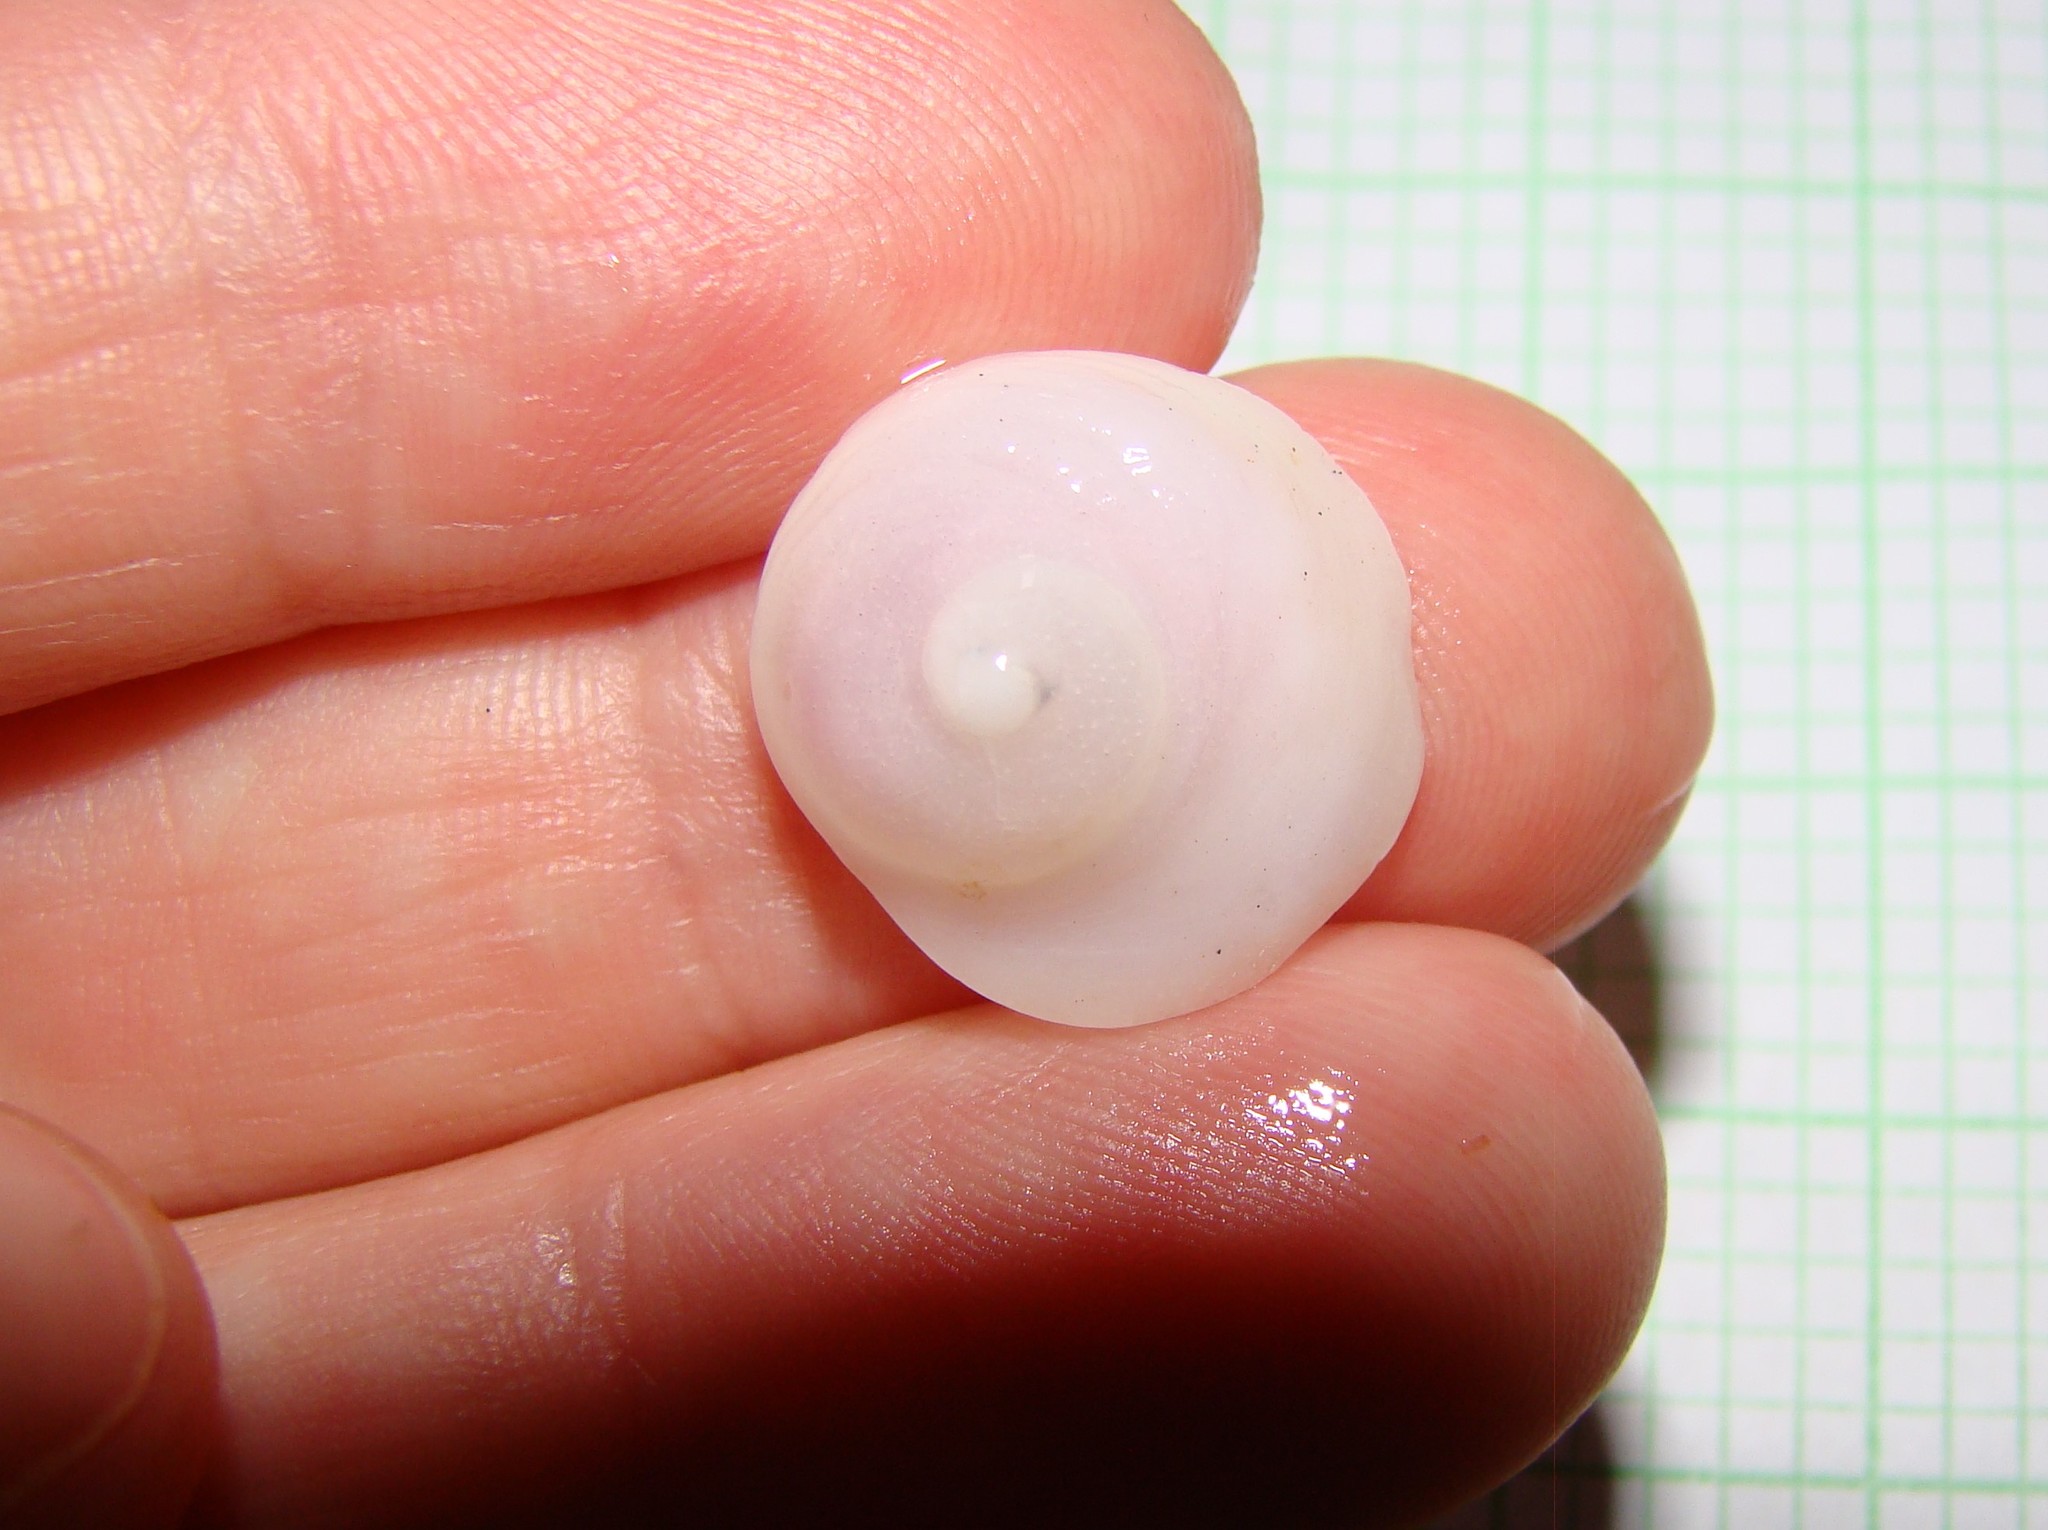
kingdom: Animalia
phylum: Mollusca
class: Gastropoda
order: Littorinimorpha
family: Calyptraeidae
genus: Sigapatella
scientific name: Sigapatella tenuis
